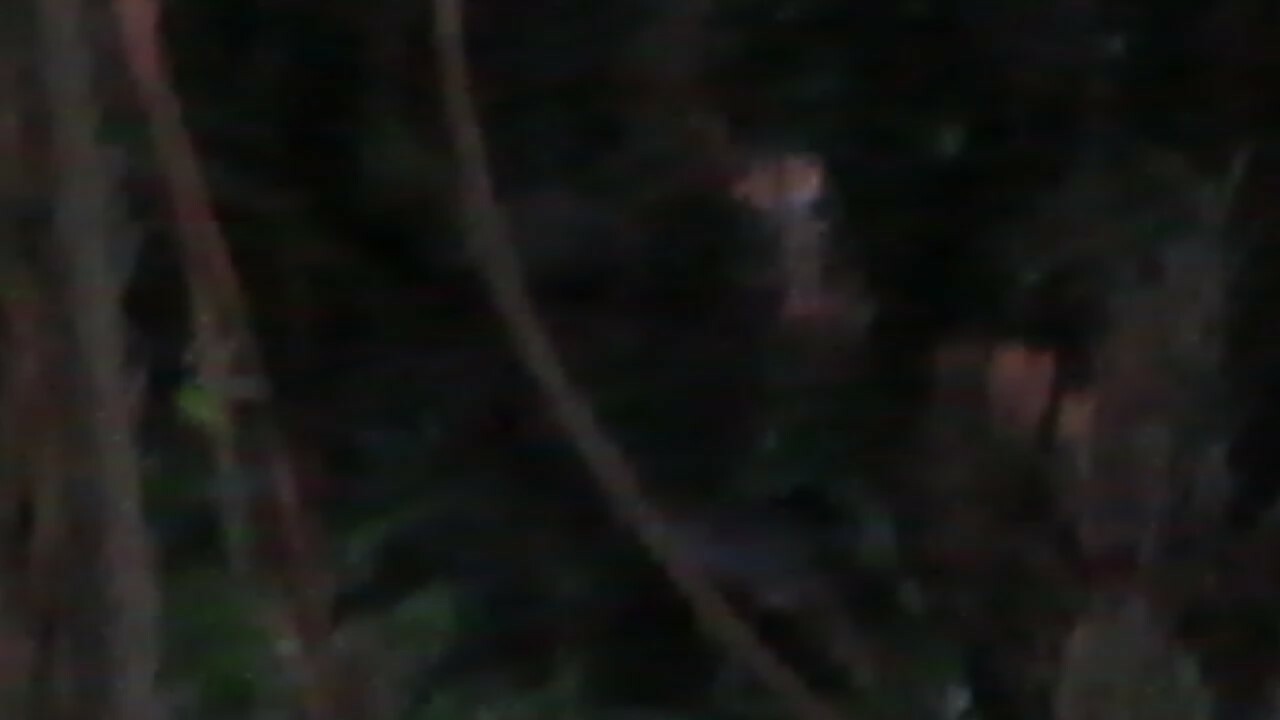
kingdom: Animalia
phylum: Chordata
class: Mammalia
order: Artiodactyla
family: Cervidae
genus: Odocoileus
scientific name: Odocoileus virginianus
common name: White-tailed deer
